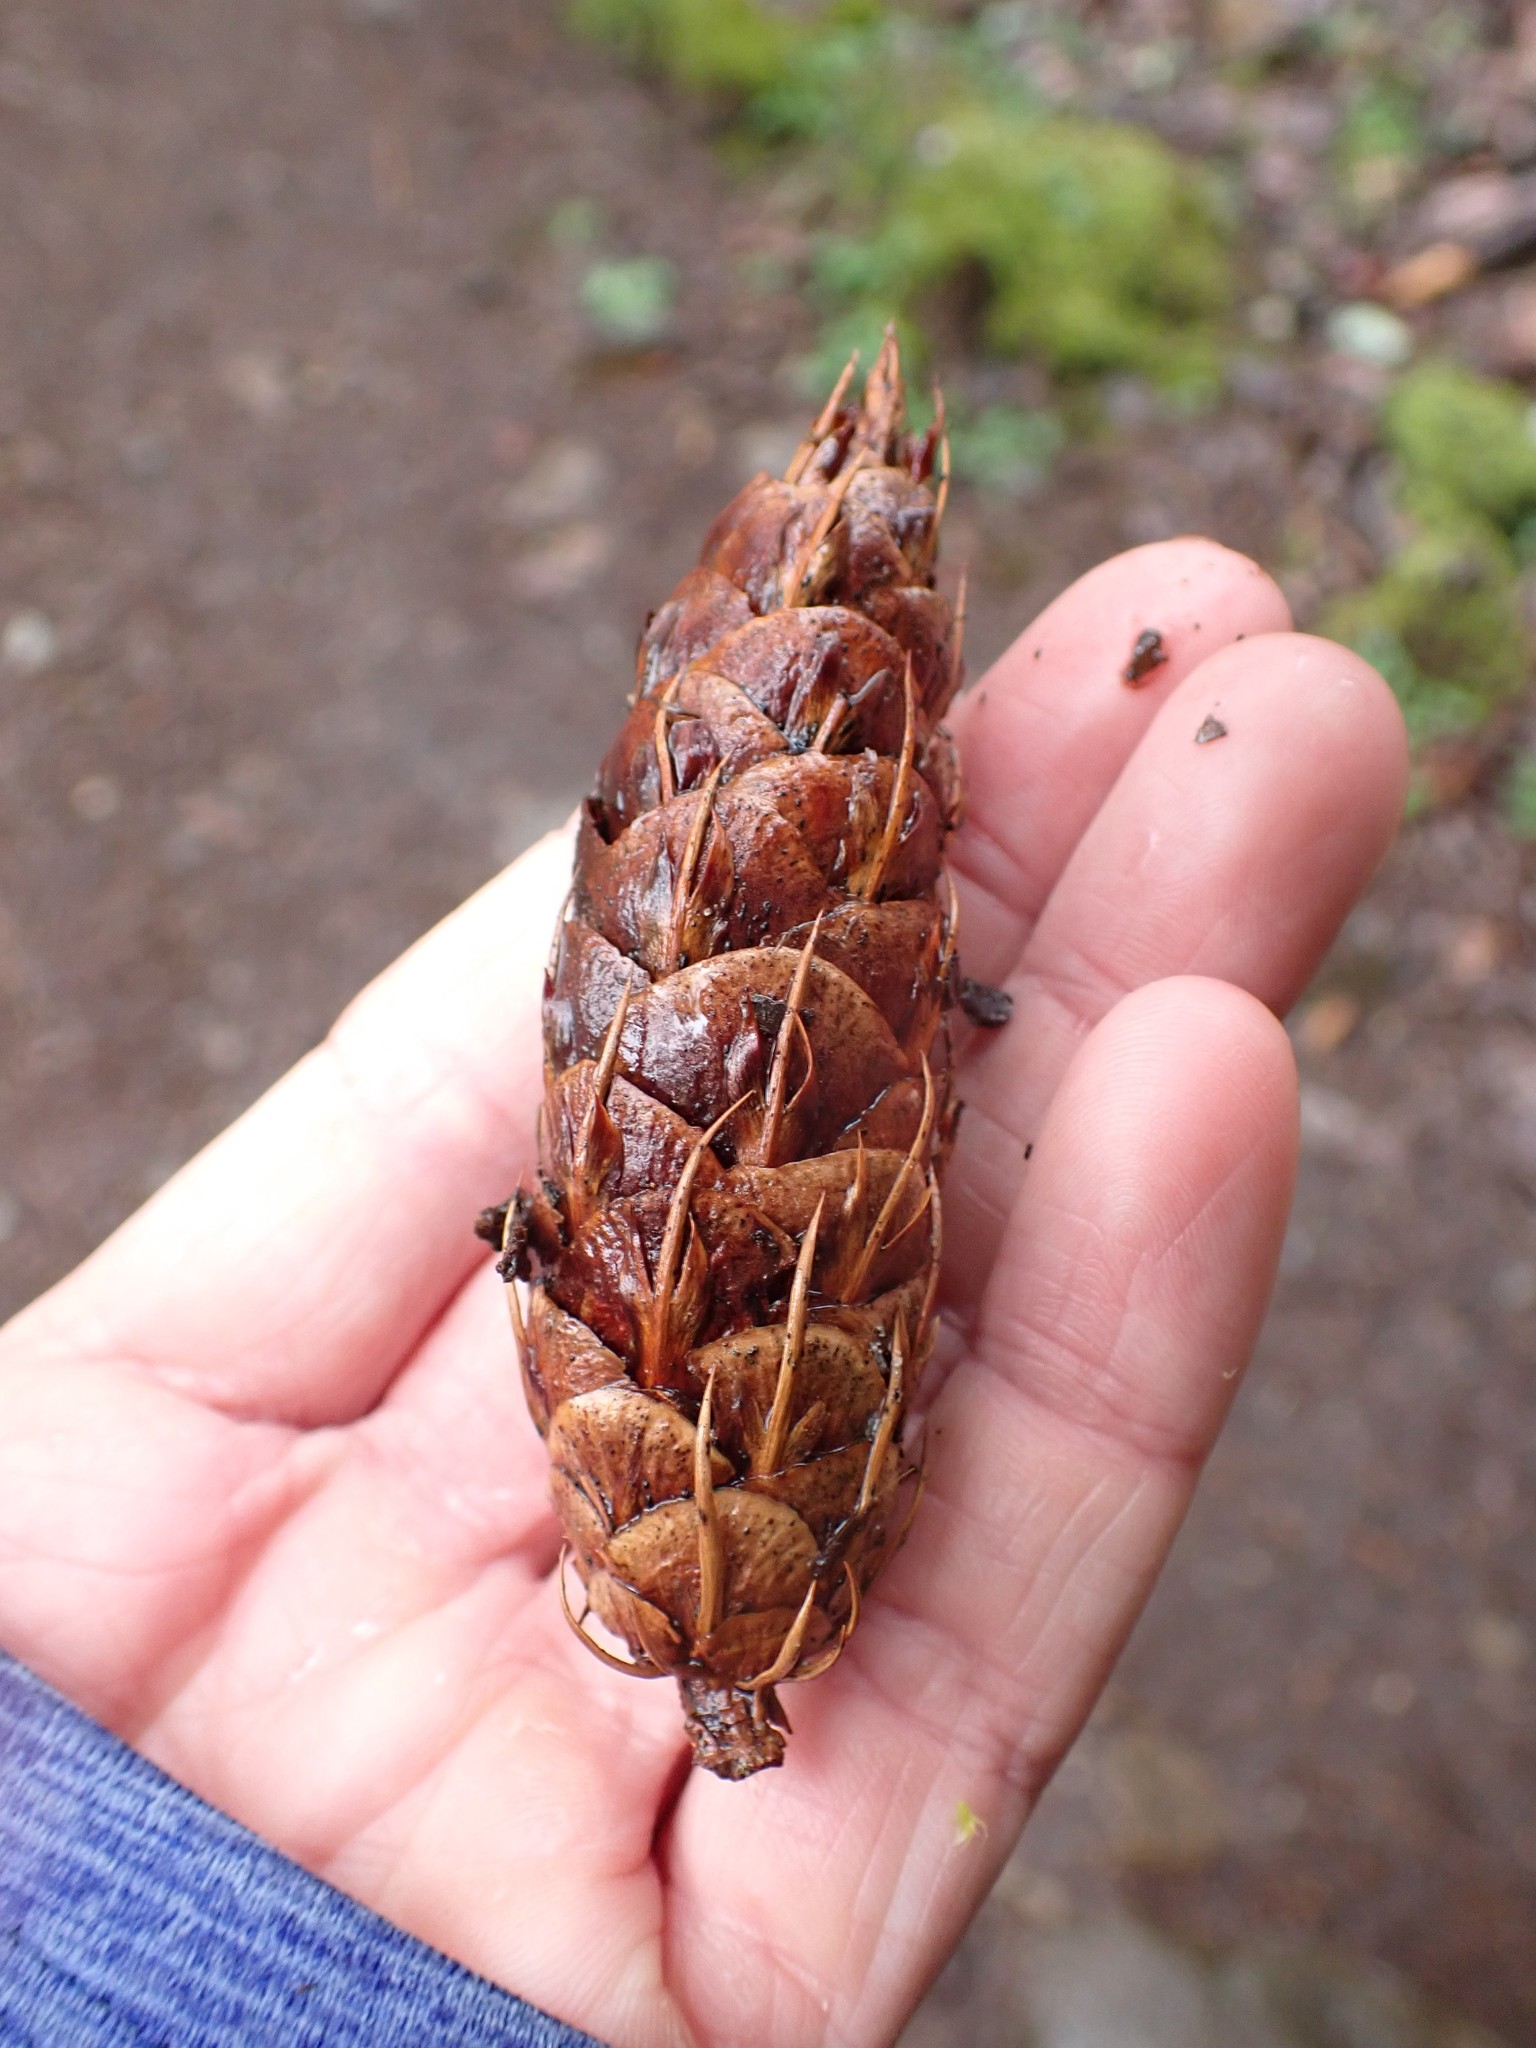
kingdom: Plantae
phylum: Tracheophyta
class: Pinopsida
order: Pinales
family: Pinaceae
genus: Pseudotsuga
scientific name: Pseudotsuga menziesii
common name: Douglas fir
